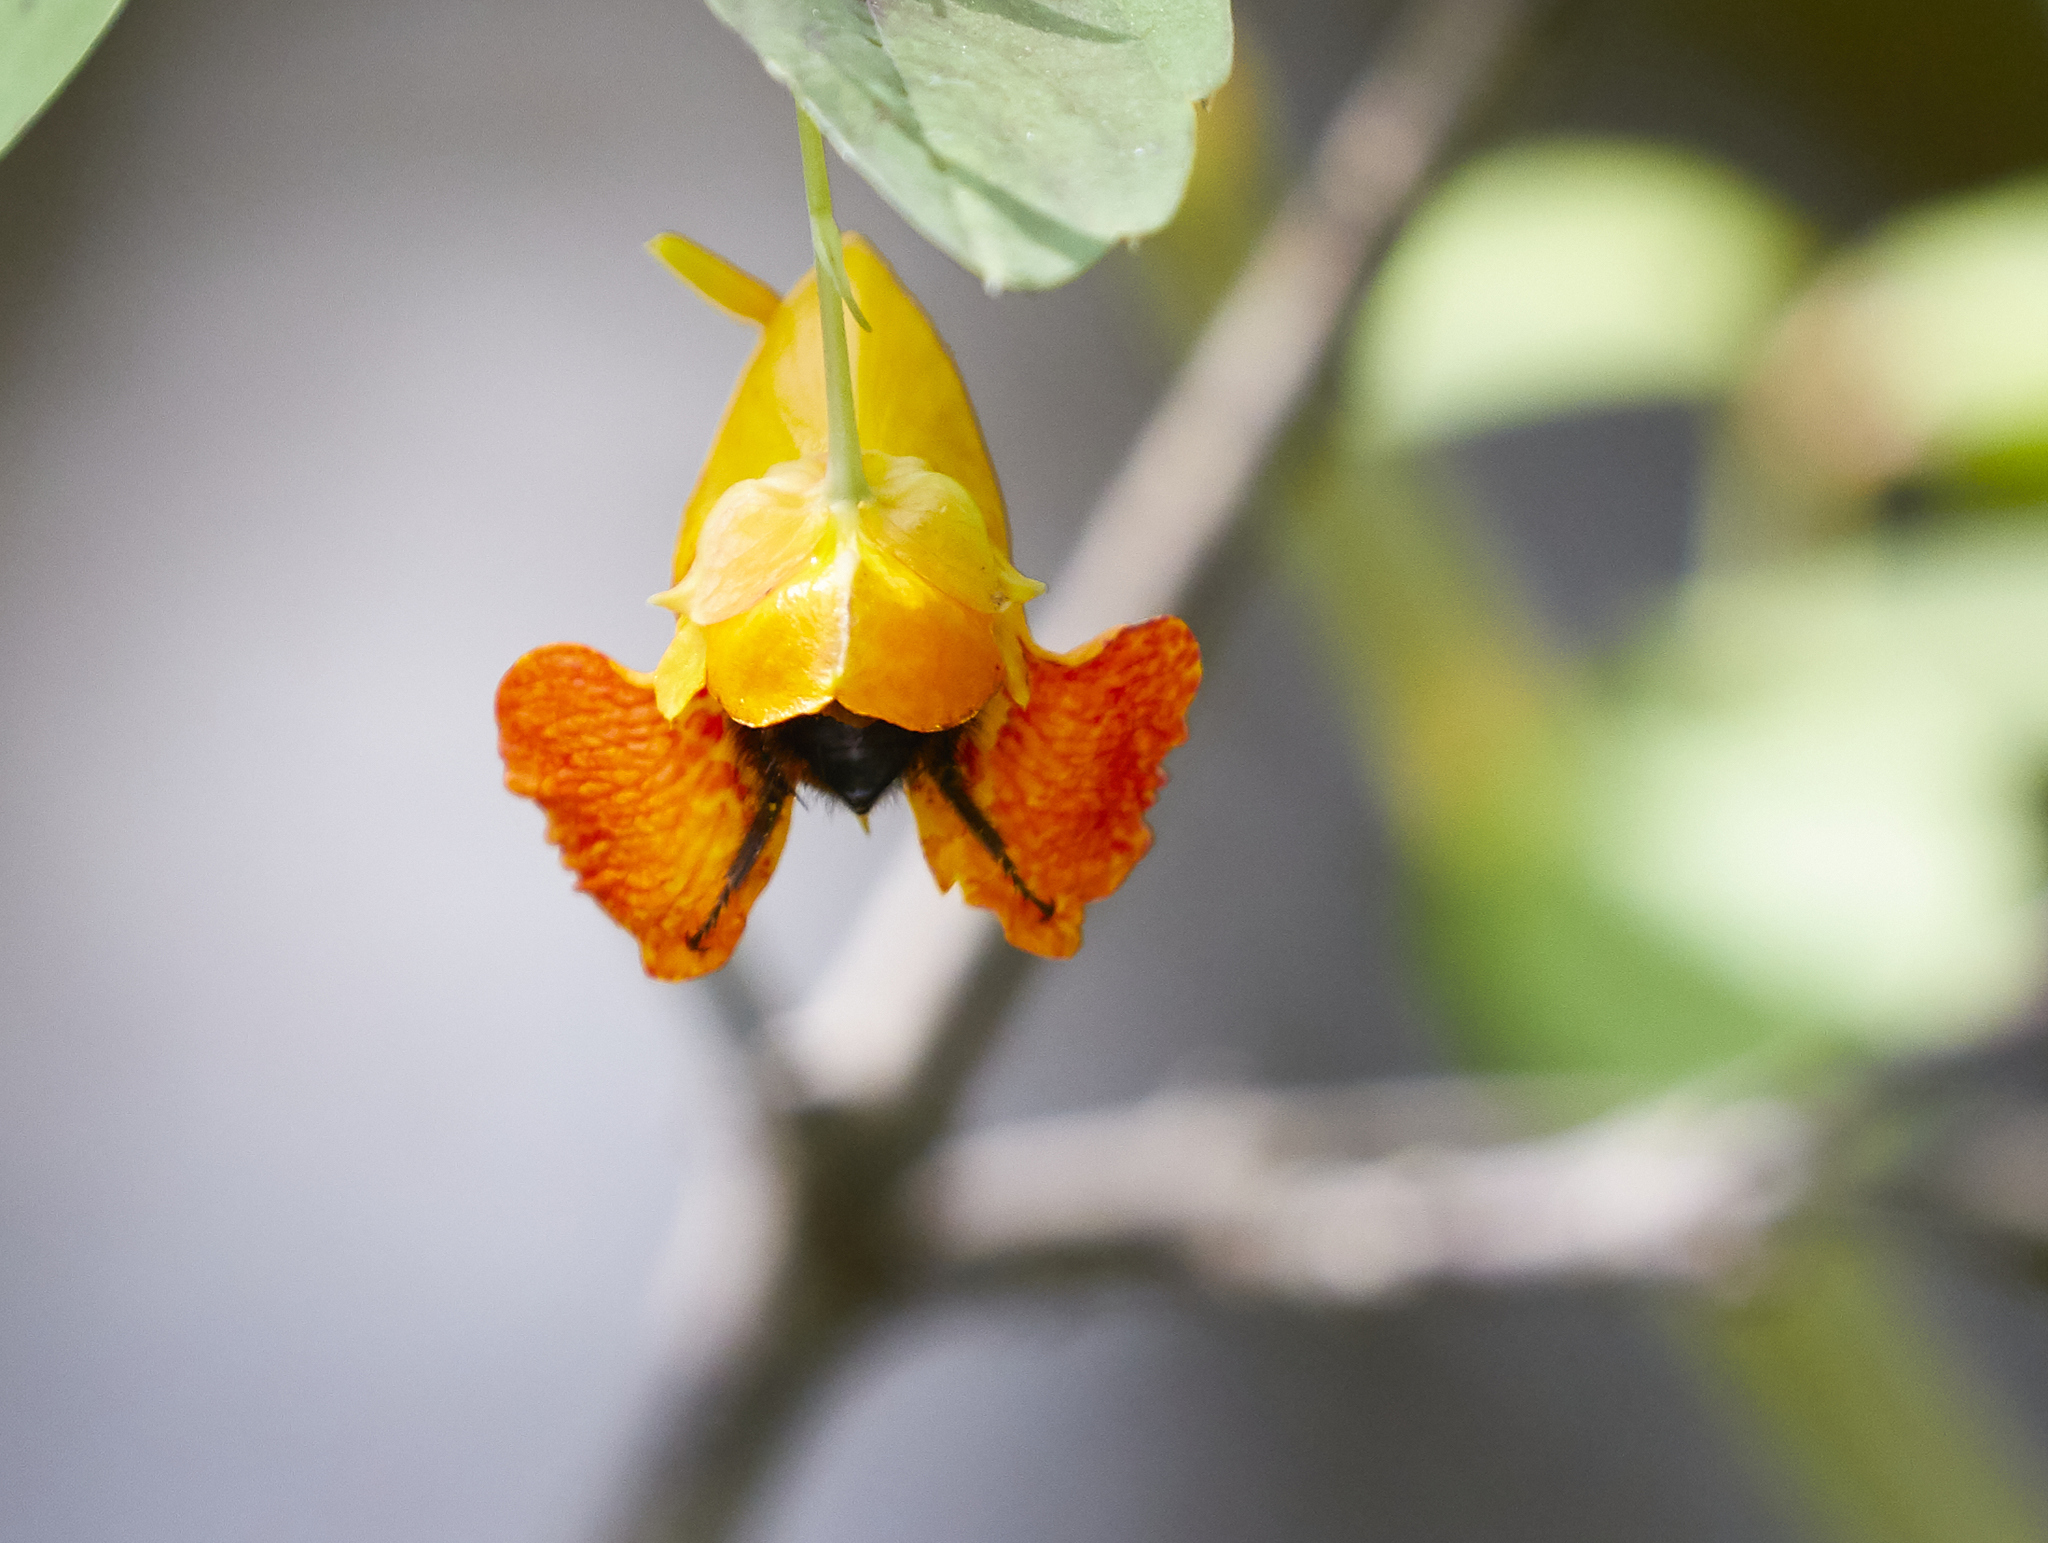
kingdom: Plantae
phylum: Tracheophyta
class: Magnoliopsida
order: Ericales
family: Balsaminaceae
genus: Impatiens
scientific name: Impatiens capensis
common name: Orange balsam
